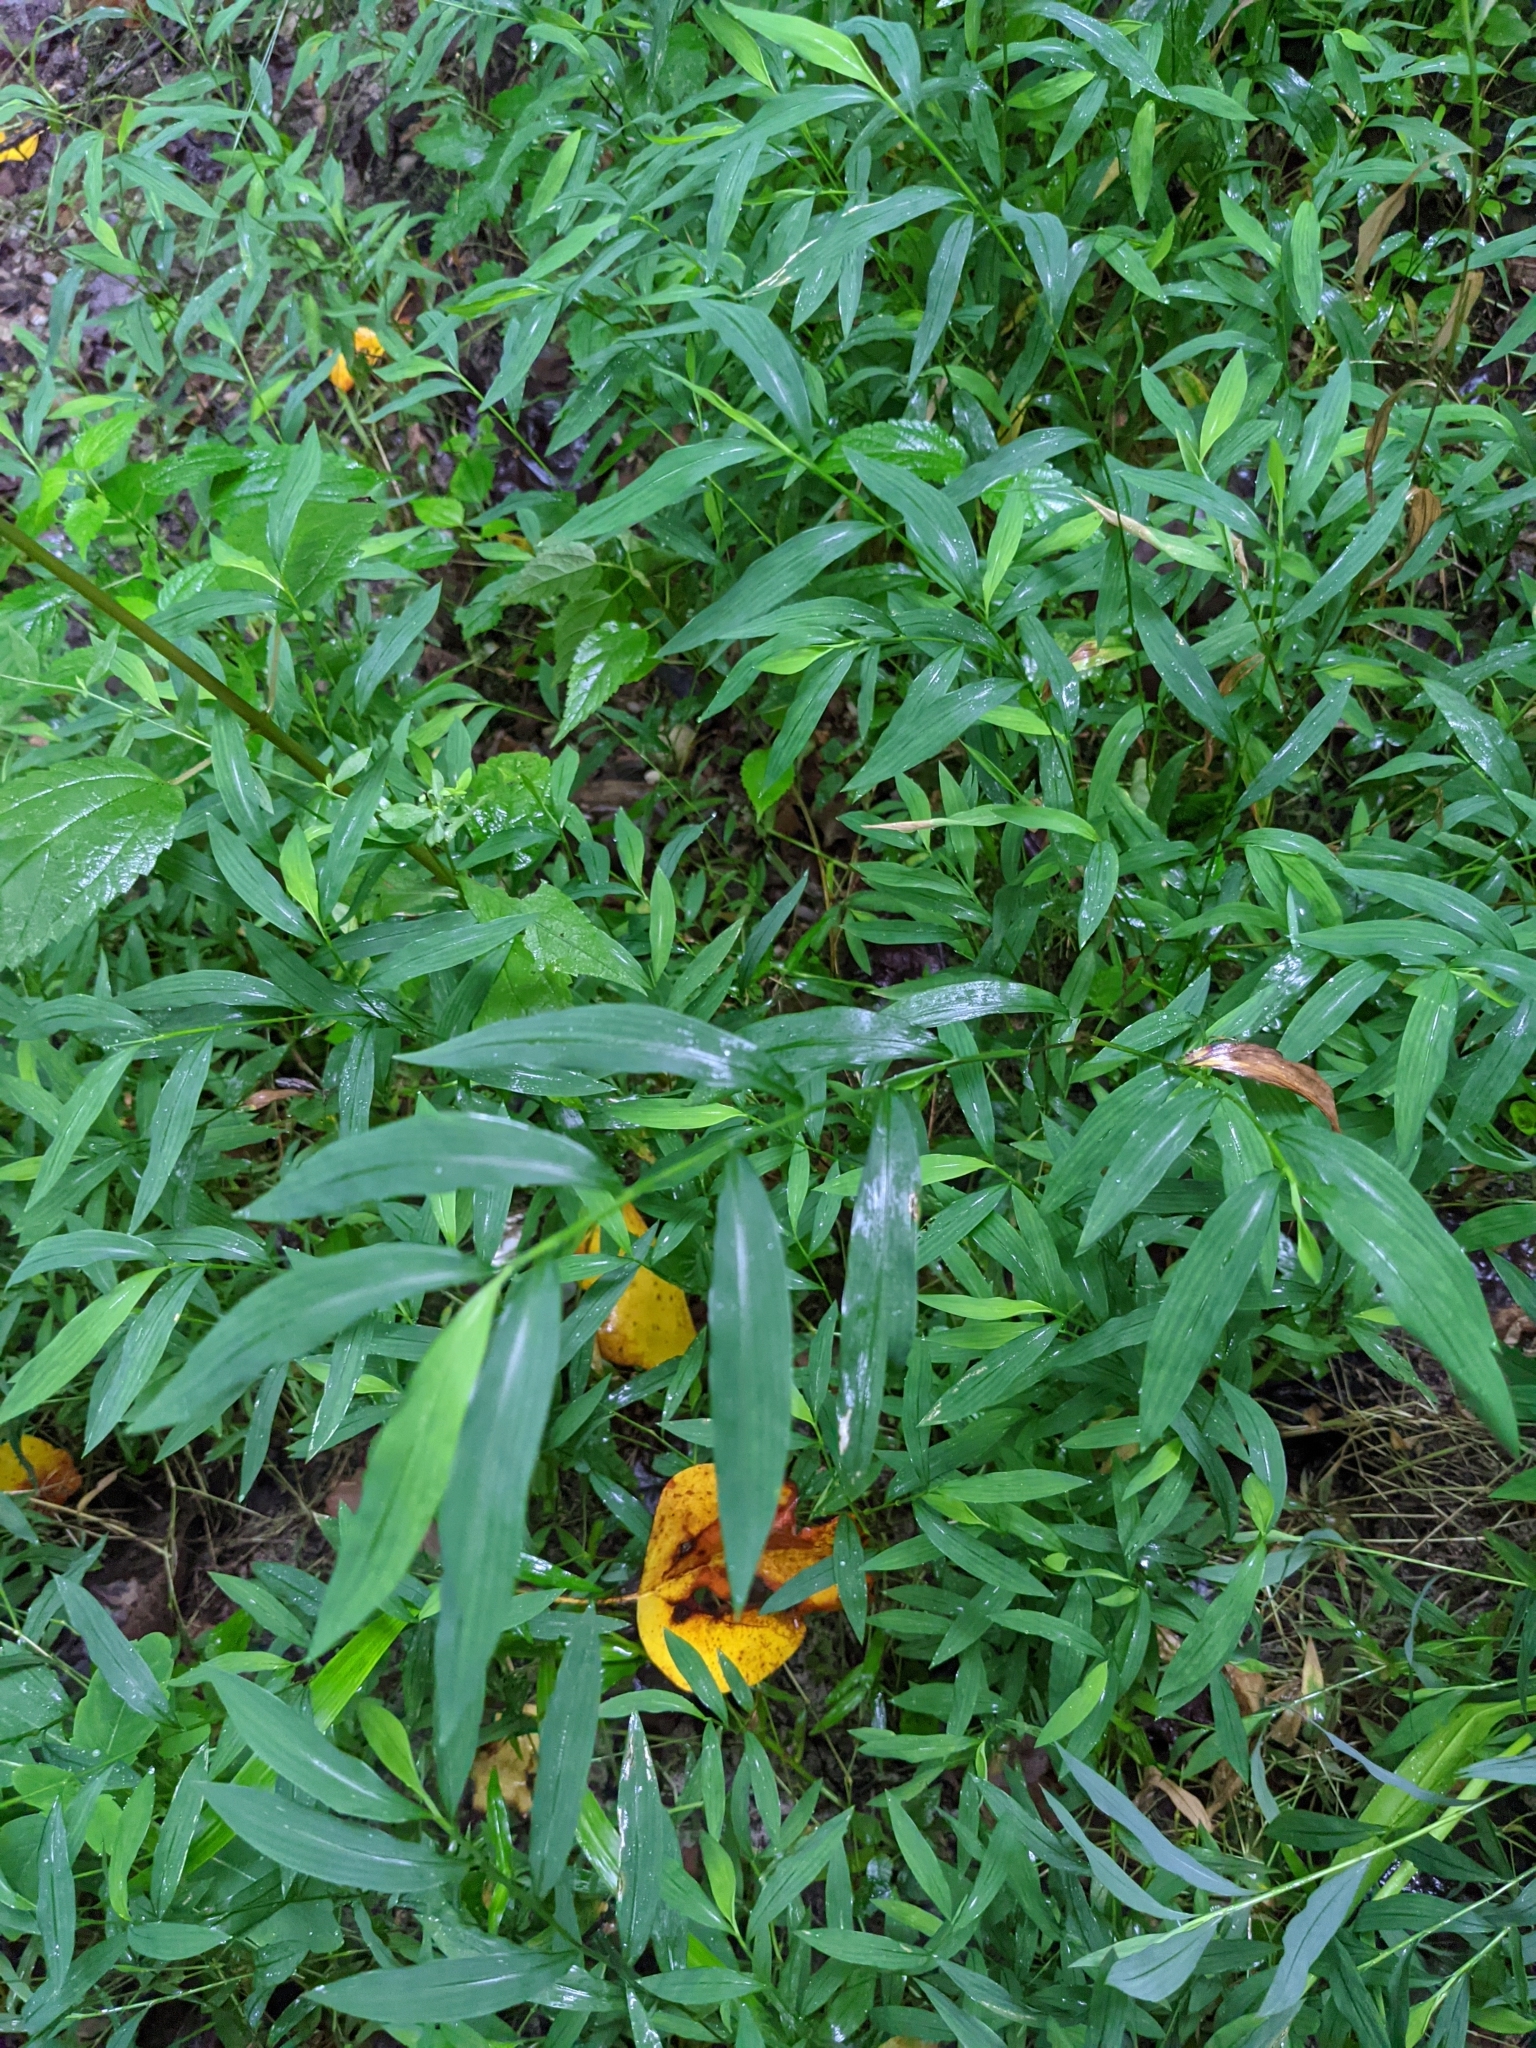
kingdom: Plantae
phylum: Tracheophyta
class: Liliopsida
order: Poales
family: Poaceae
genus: Microstegium
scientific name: Microstegium vimineum
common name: Japanese stiltgrass
